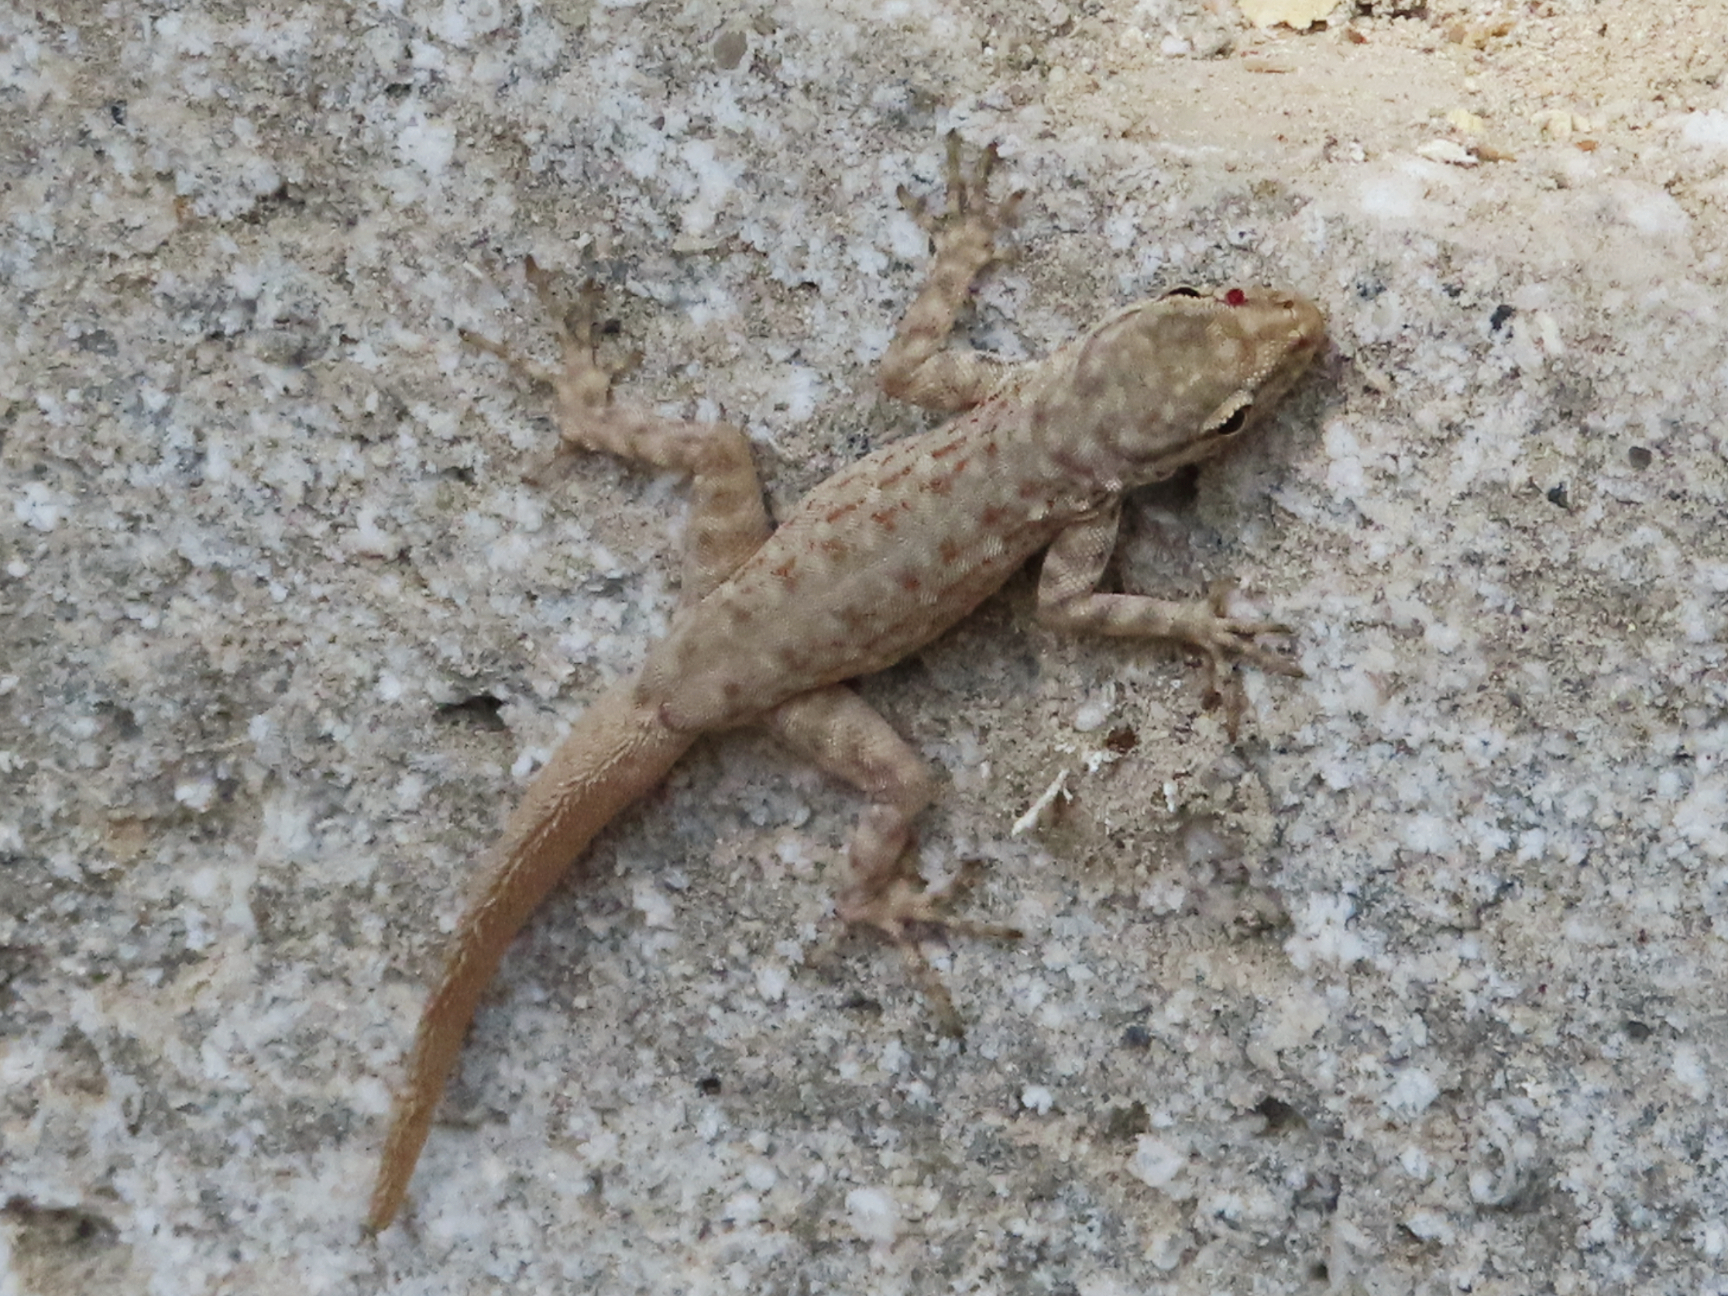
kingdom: Animalia
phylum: Chordata
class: Squamata
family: Sphaerodactylidae
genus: Pristurus
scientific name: Pristurus rupestris
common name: Blanford’s semaphore gecko
